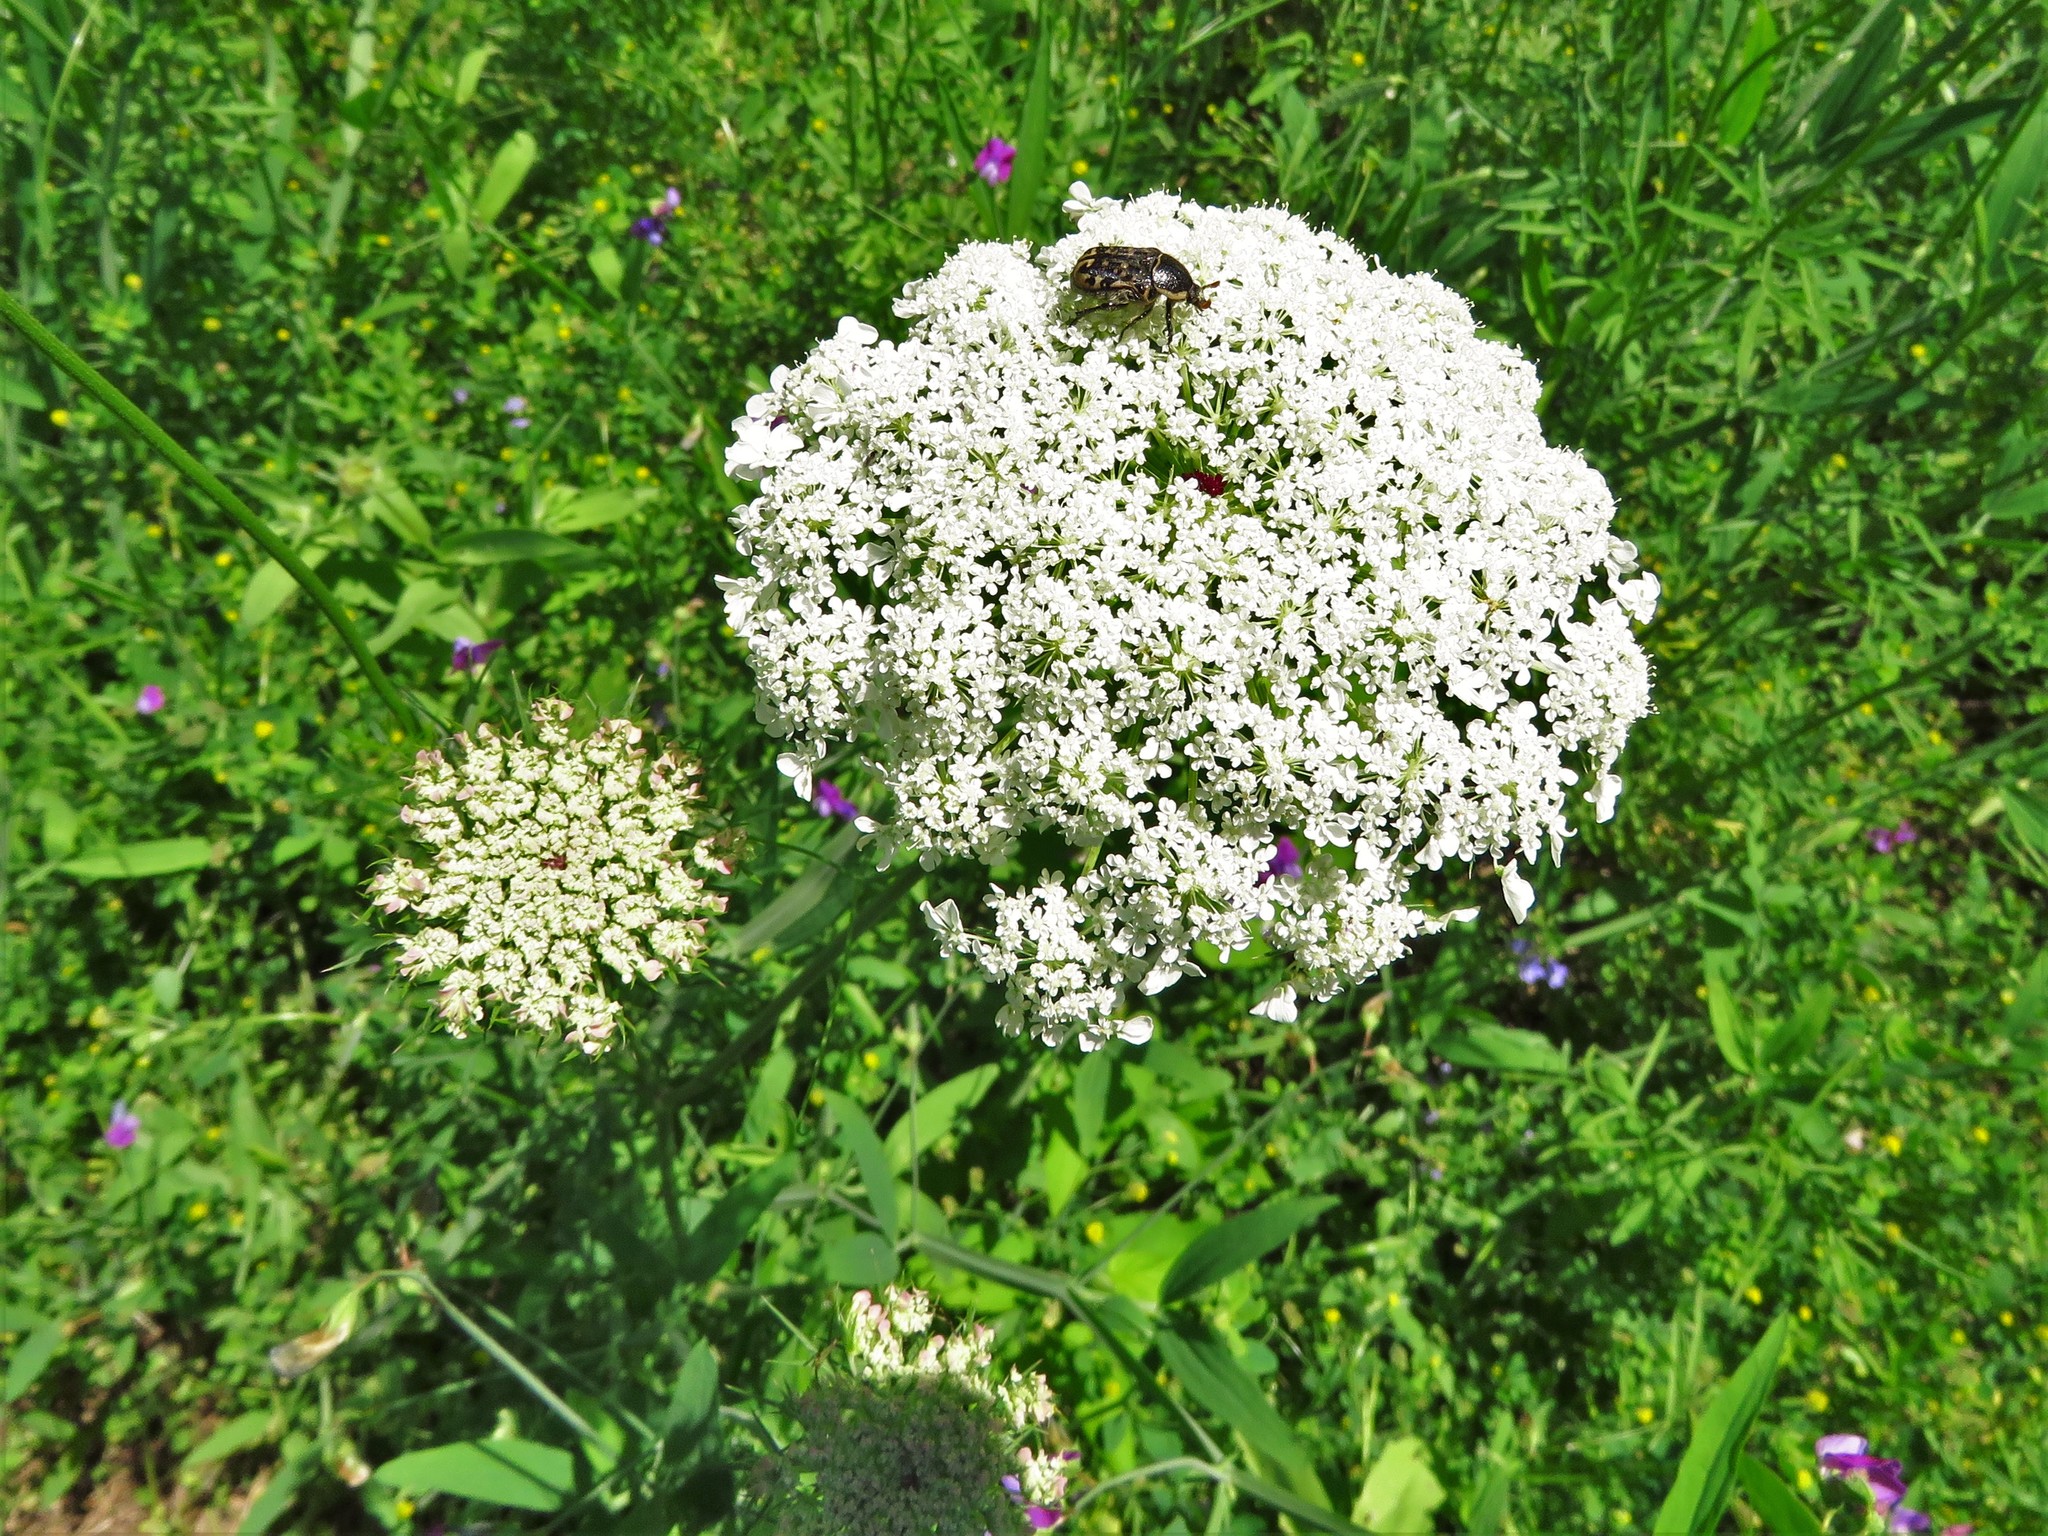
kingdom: Plantae
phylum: Tracheophyta
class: Magnoliopsida
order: Apiales
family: Apiaceae
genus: Daucus
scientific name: Daucus carota
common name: Wild carrot
